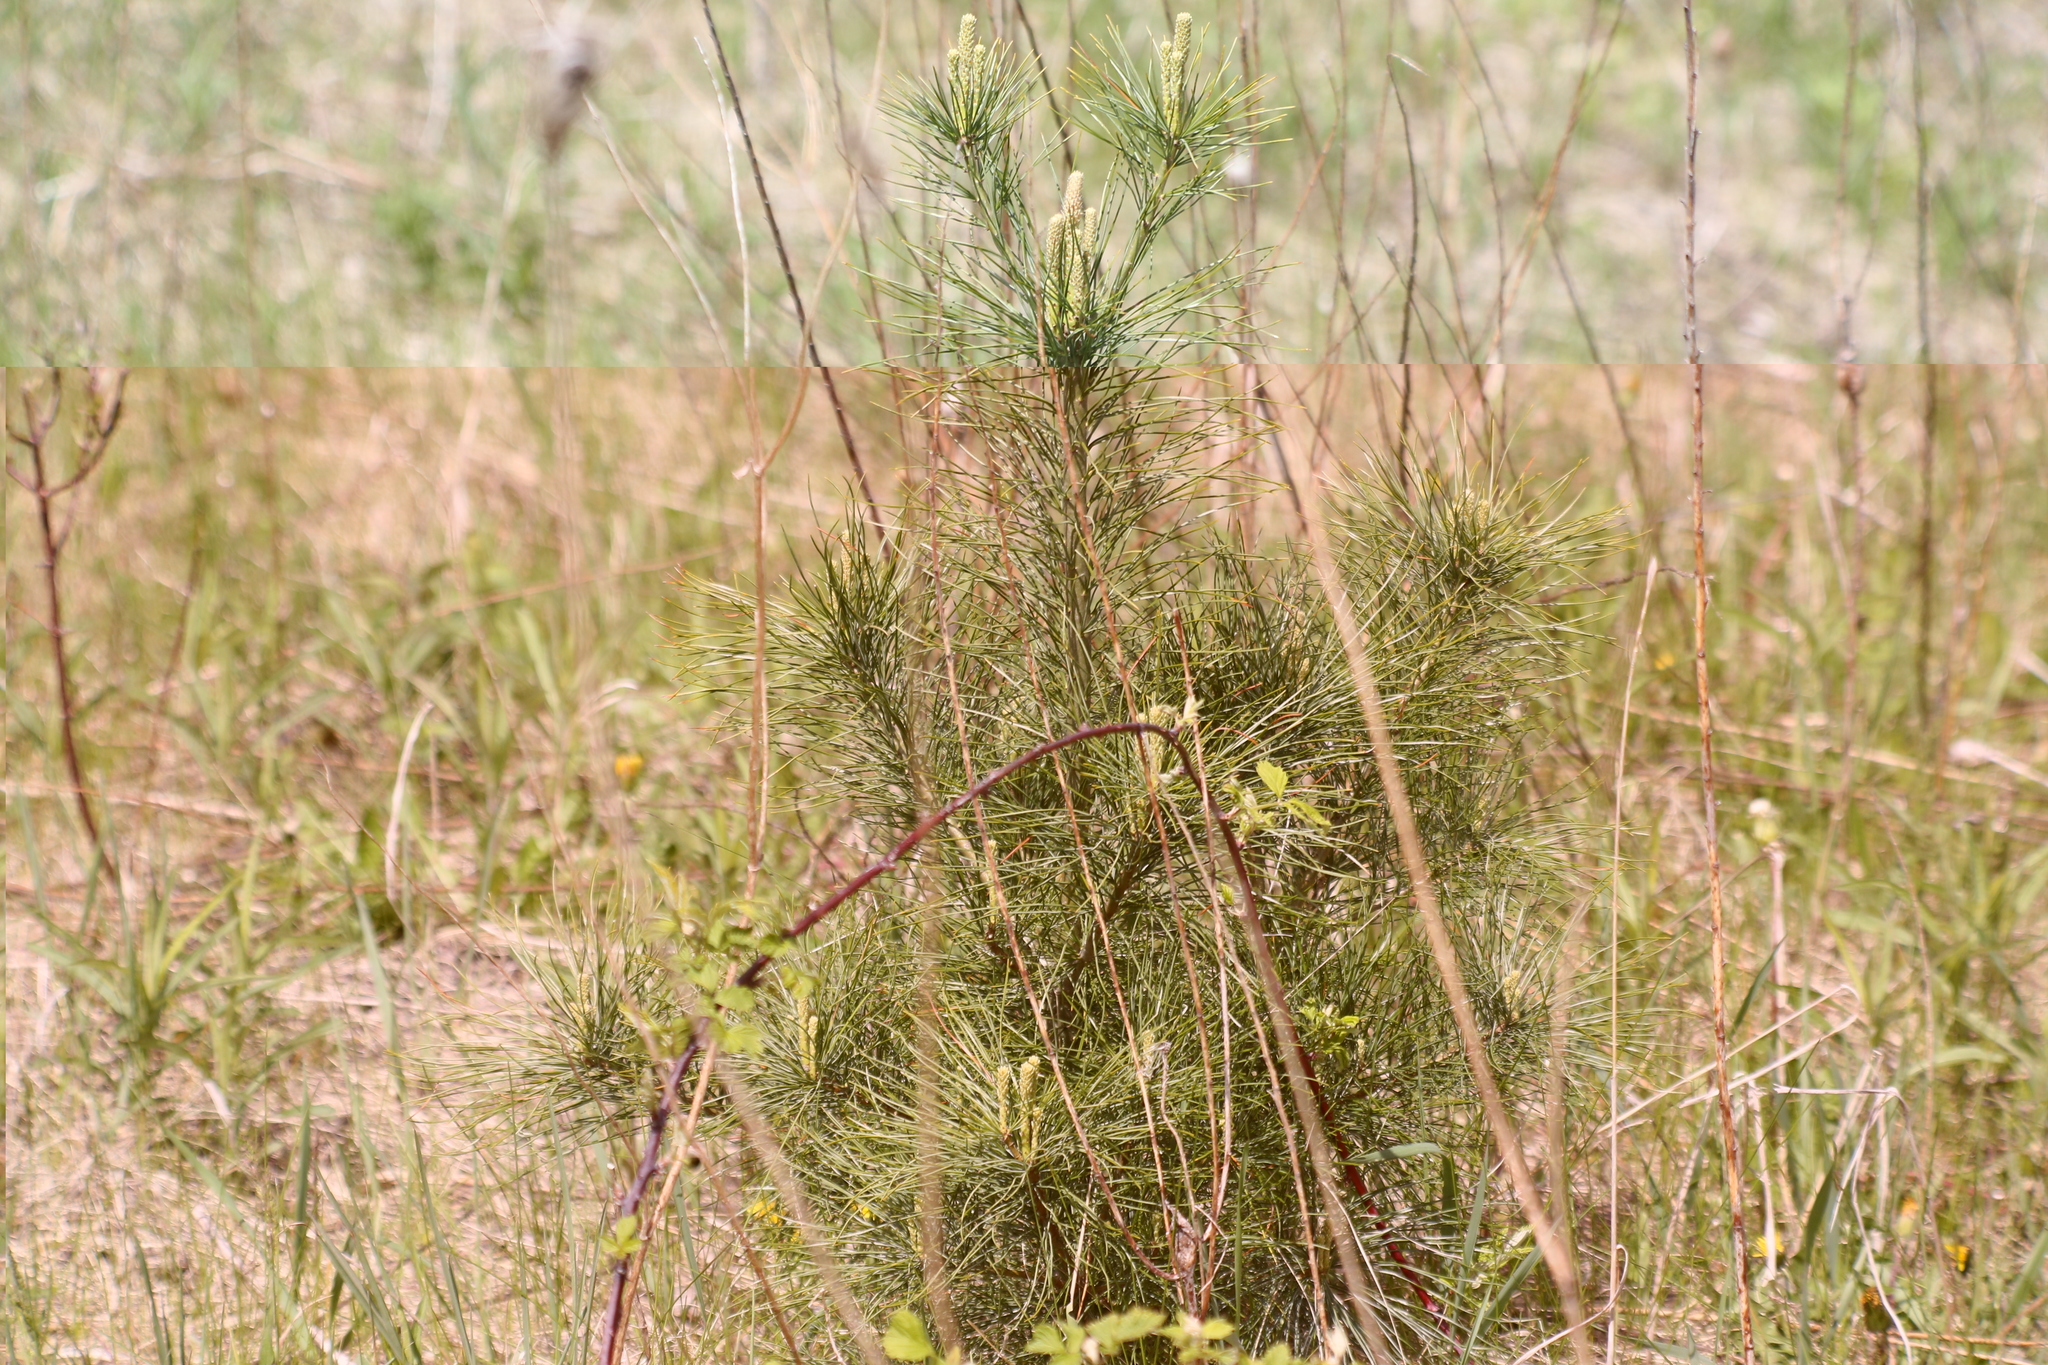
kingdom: Plantae
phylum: Tracheophyta
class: Pinopsida
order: Pinales
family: Pinaceae
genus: Pinus
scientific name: Pinus resinosa
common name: Norway pine
